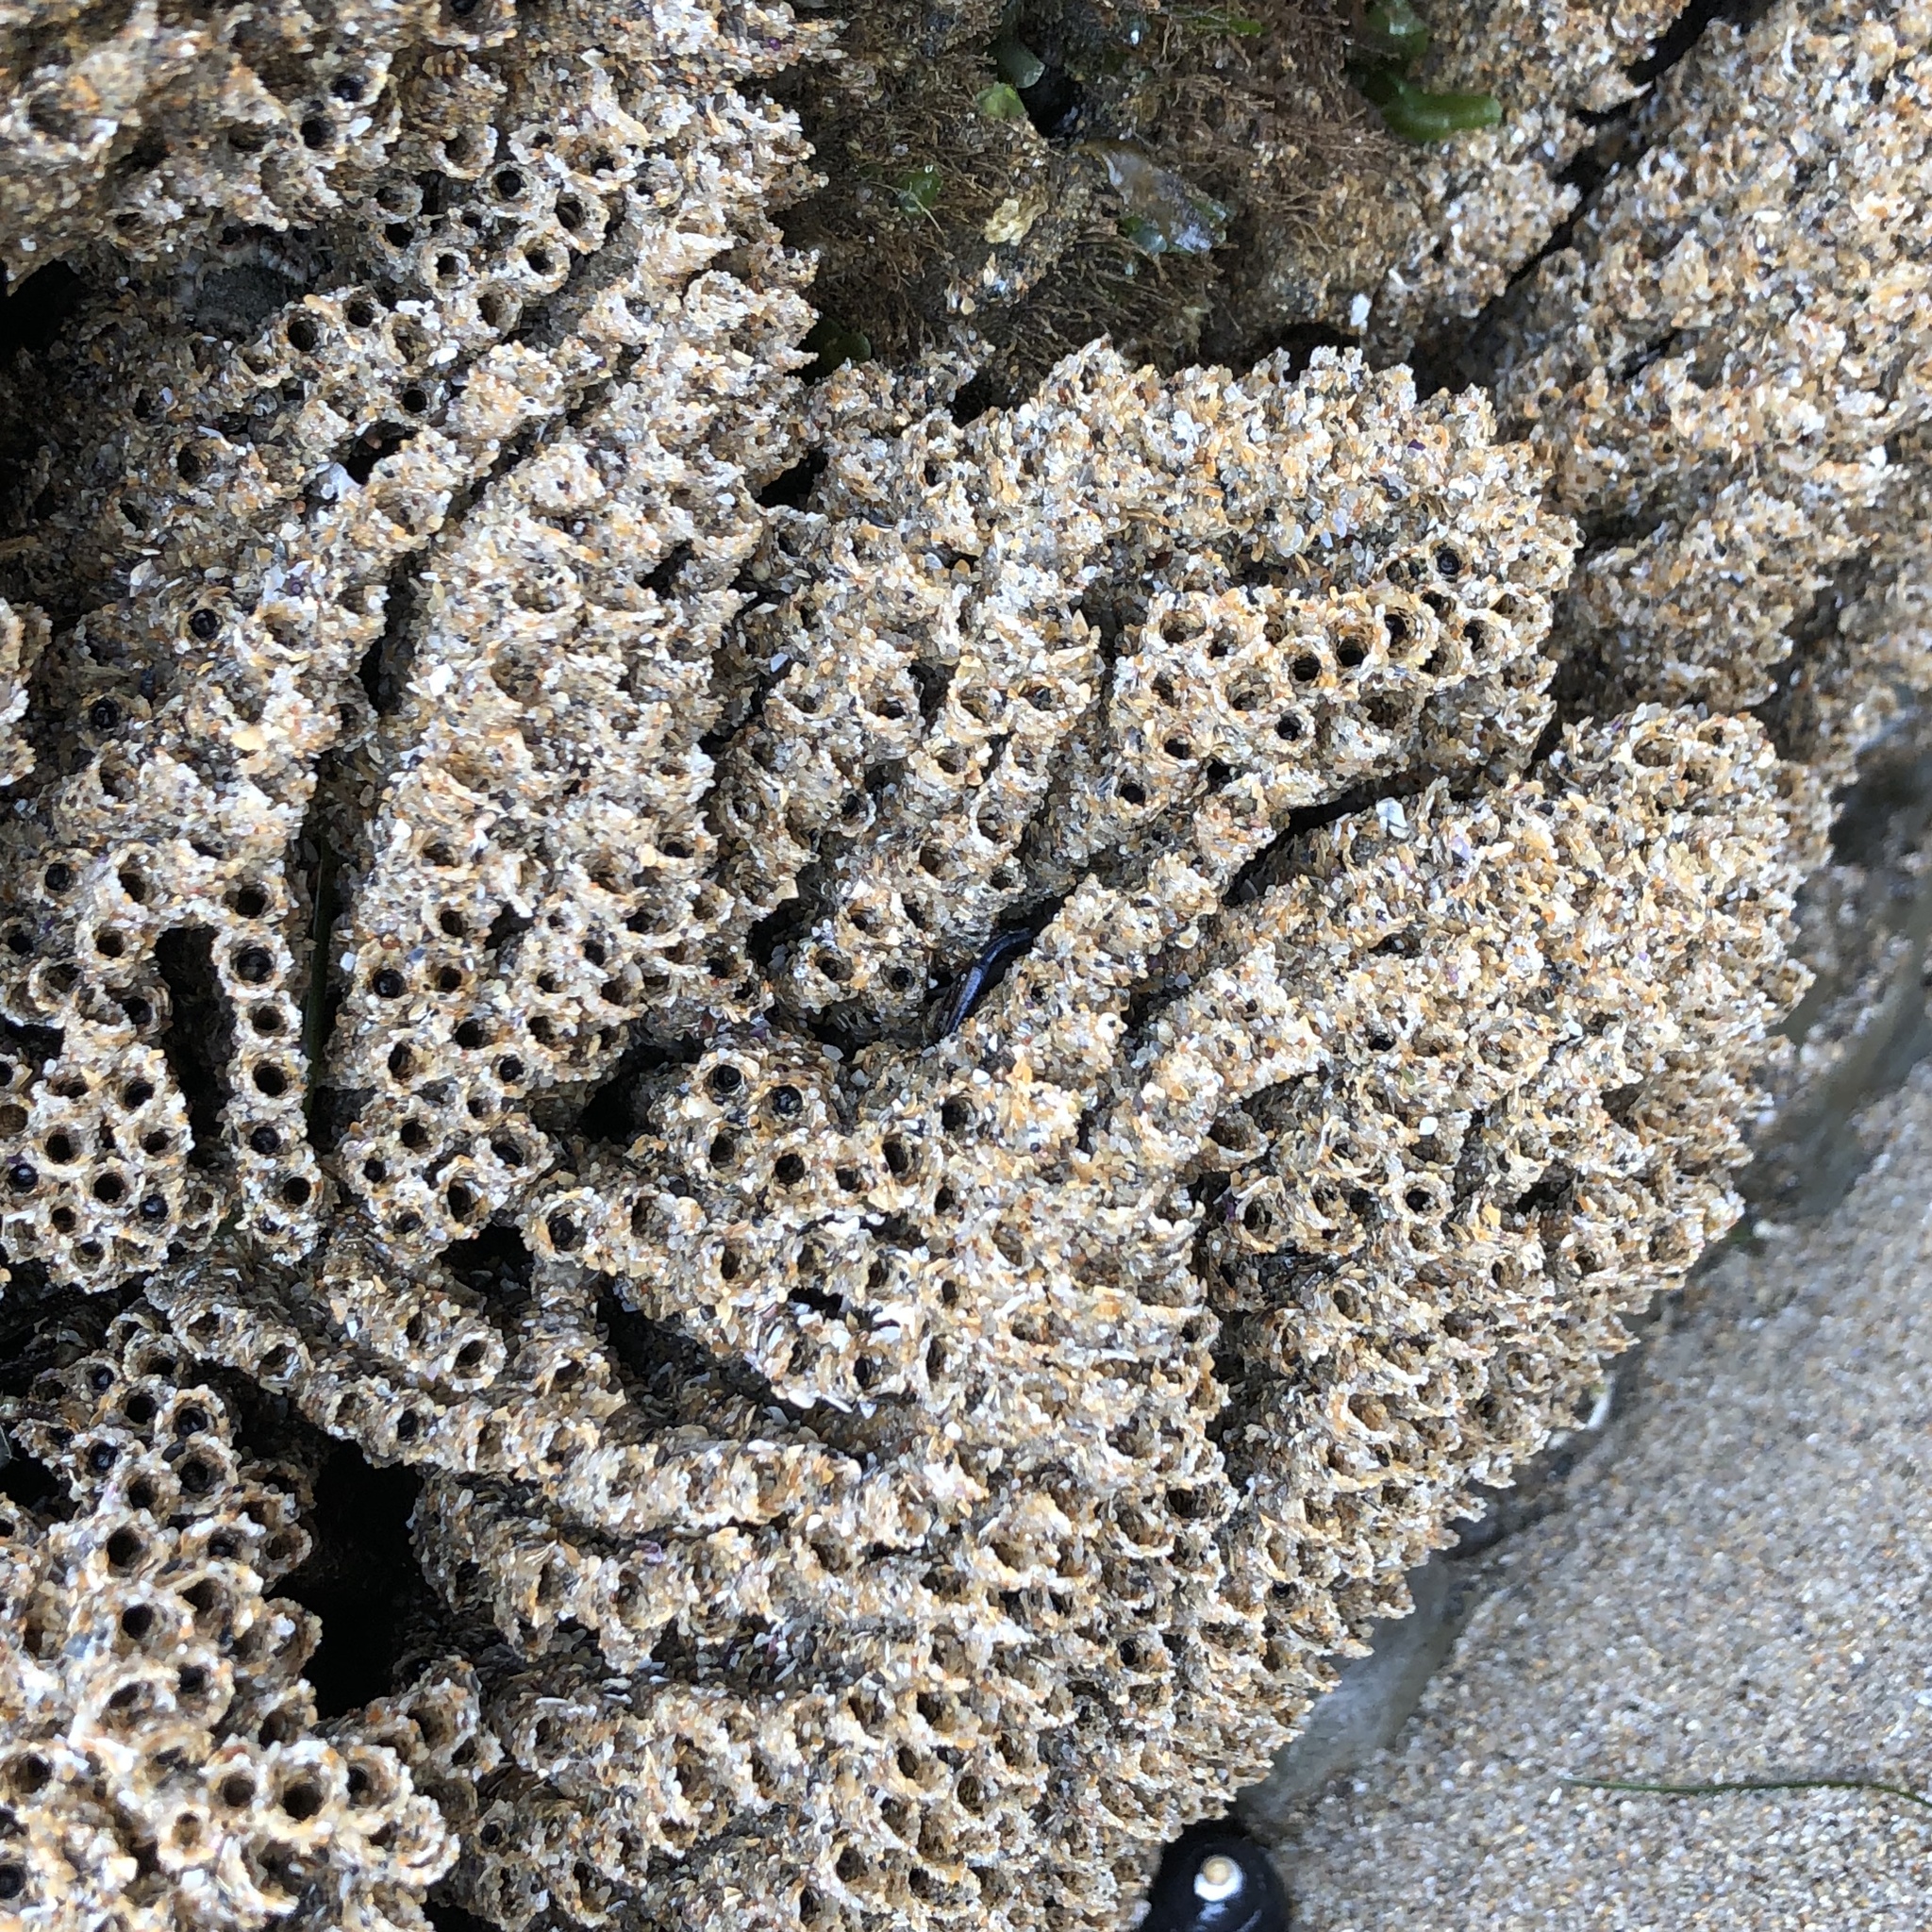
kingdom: Animalia
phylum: Annelida
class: Polychaeta
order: Sabellida
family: Sabellariidae
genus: Phragmatopoma
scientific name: Phragmatopoma californica
